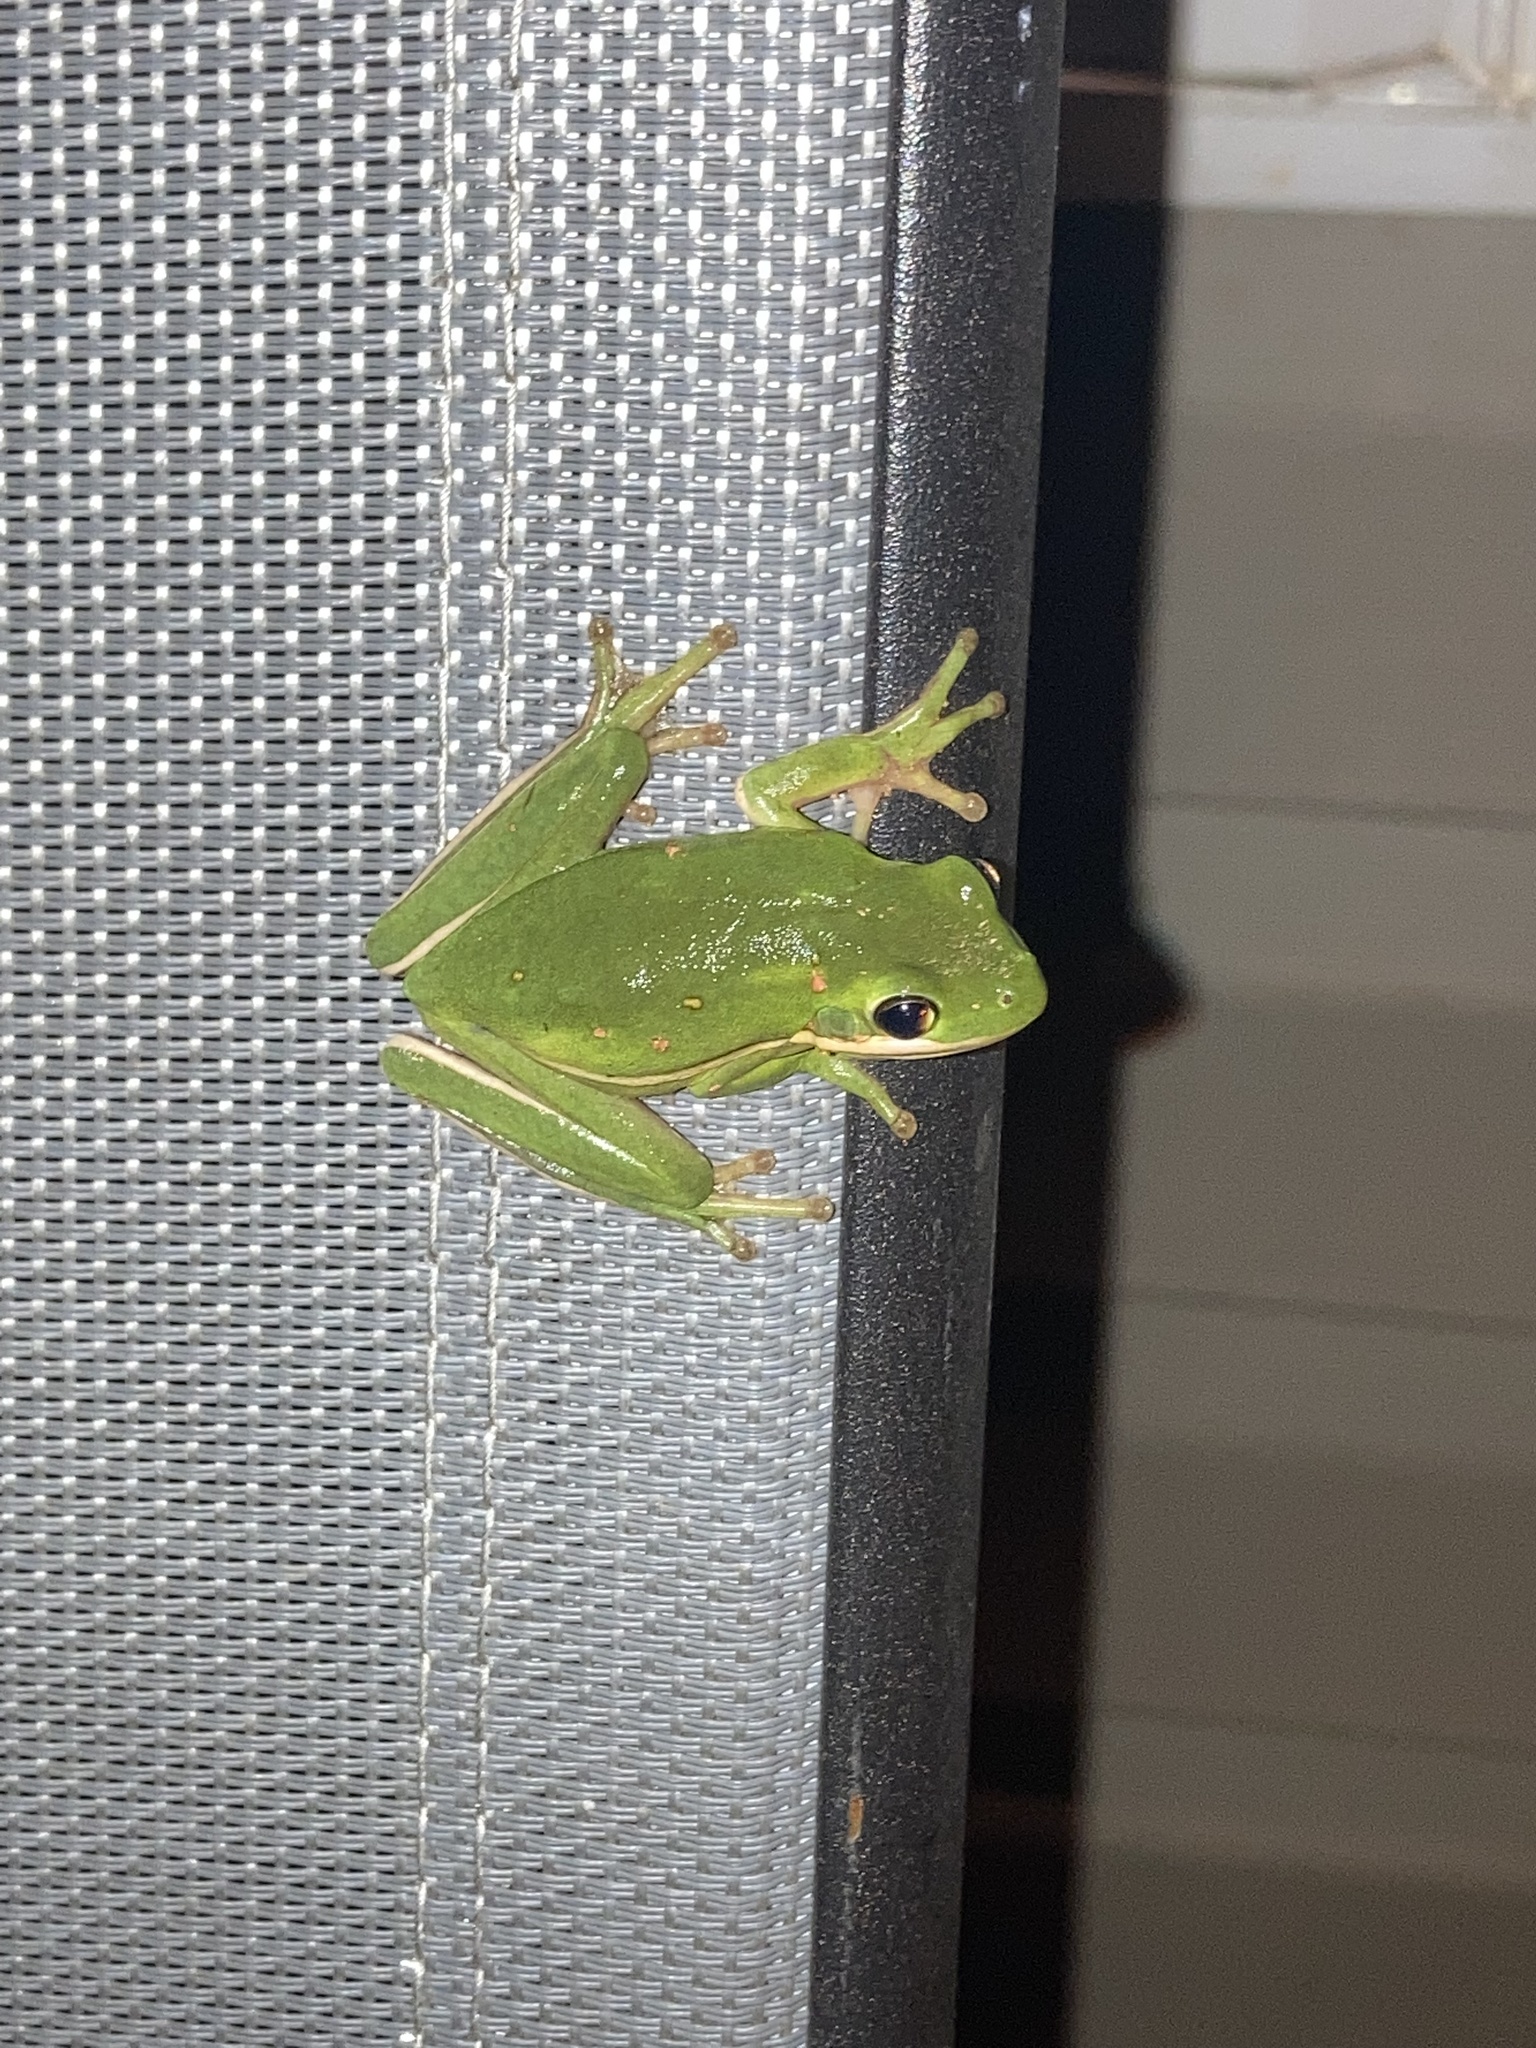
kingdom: Animalia
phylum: Chordata
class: Amphibia
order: Anura
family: Hylidae
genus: Dryophytes
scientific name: Dryophytes cinereus
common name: Green treefrog
